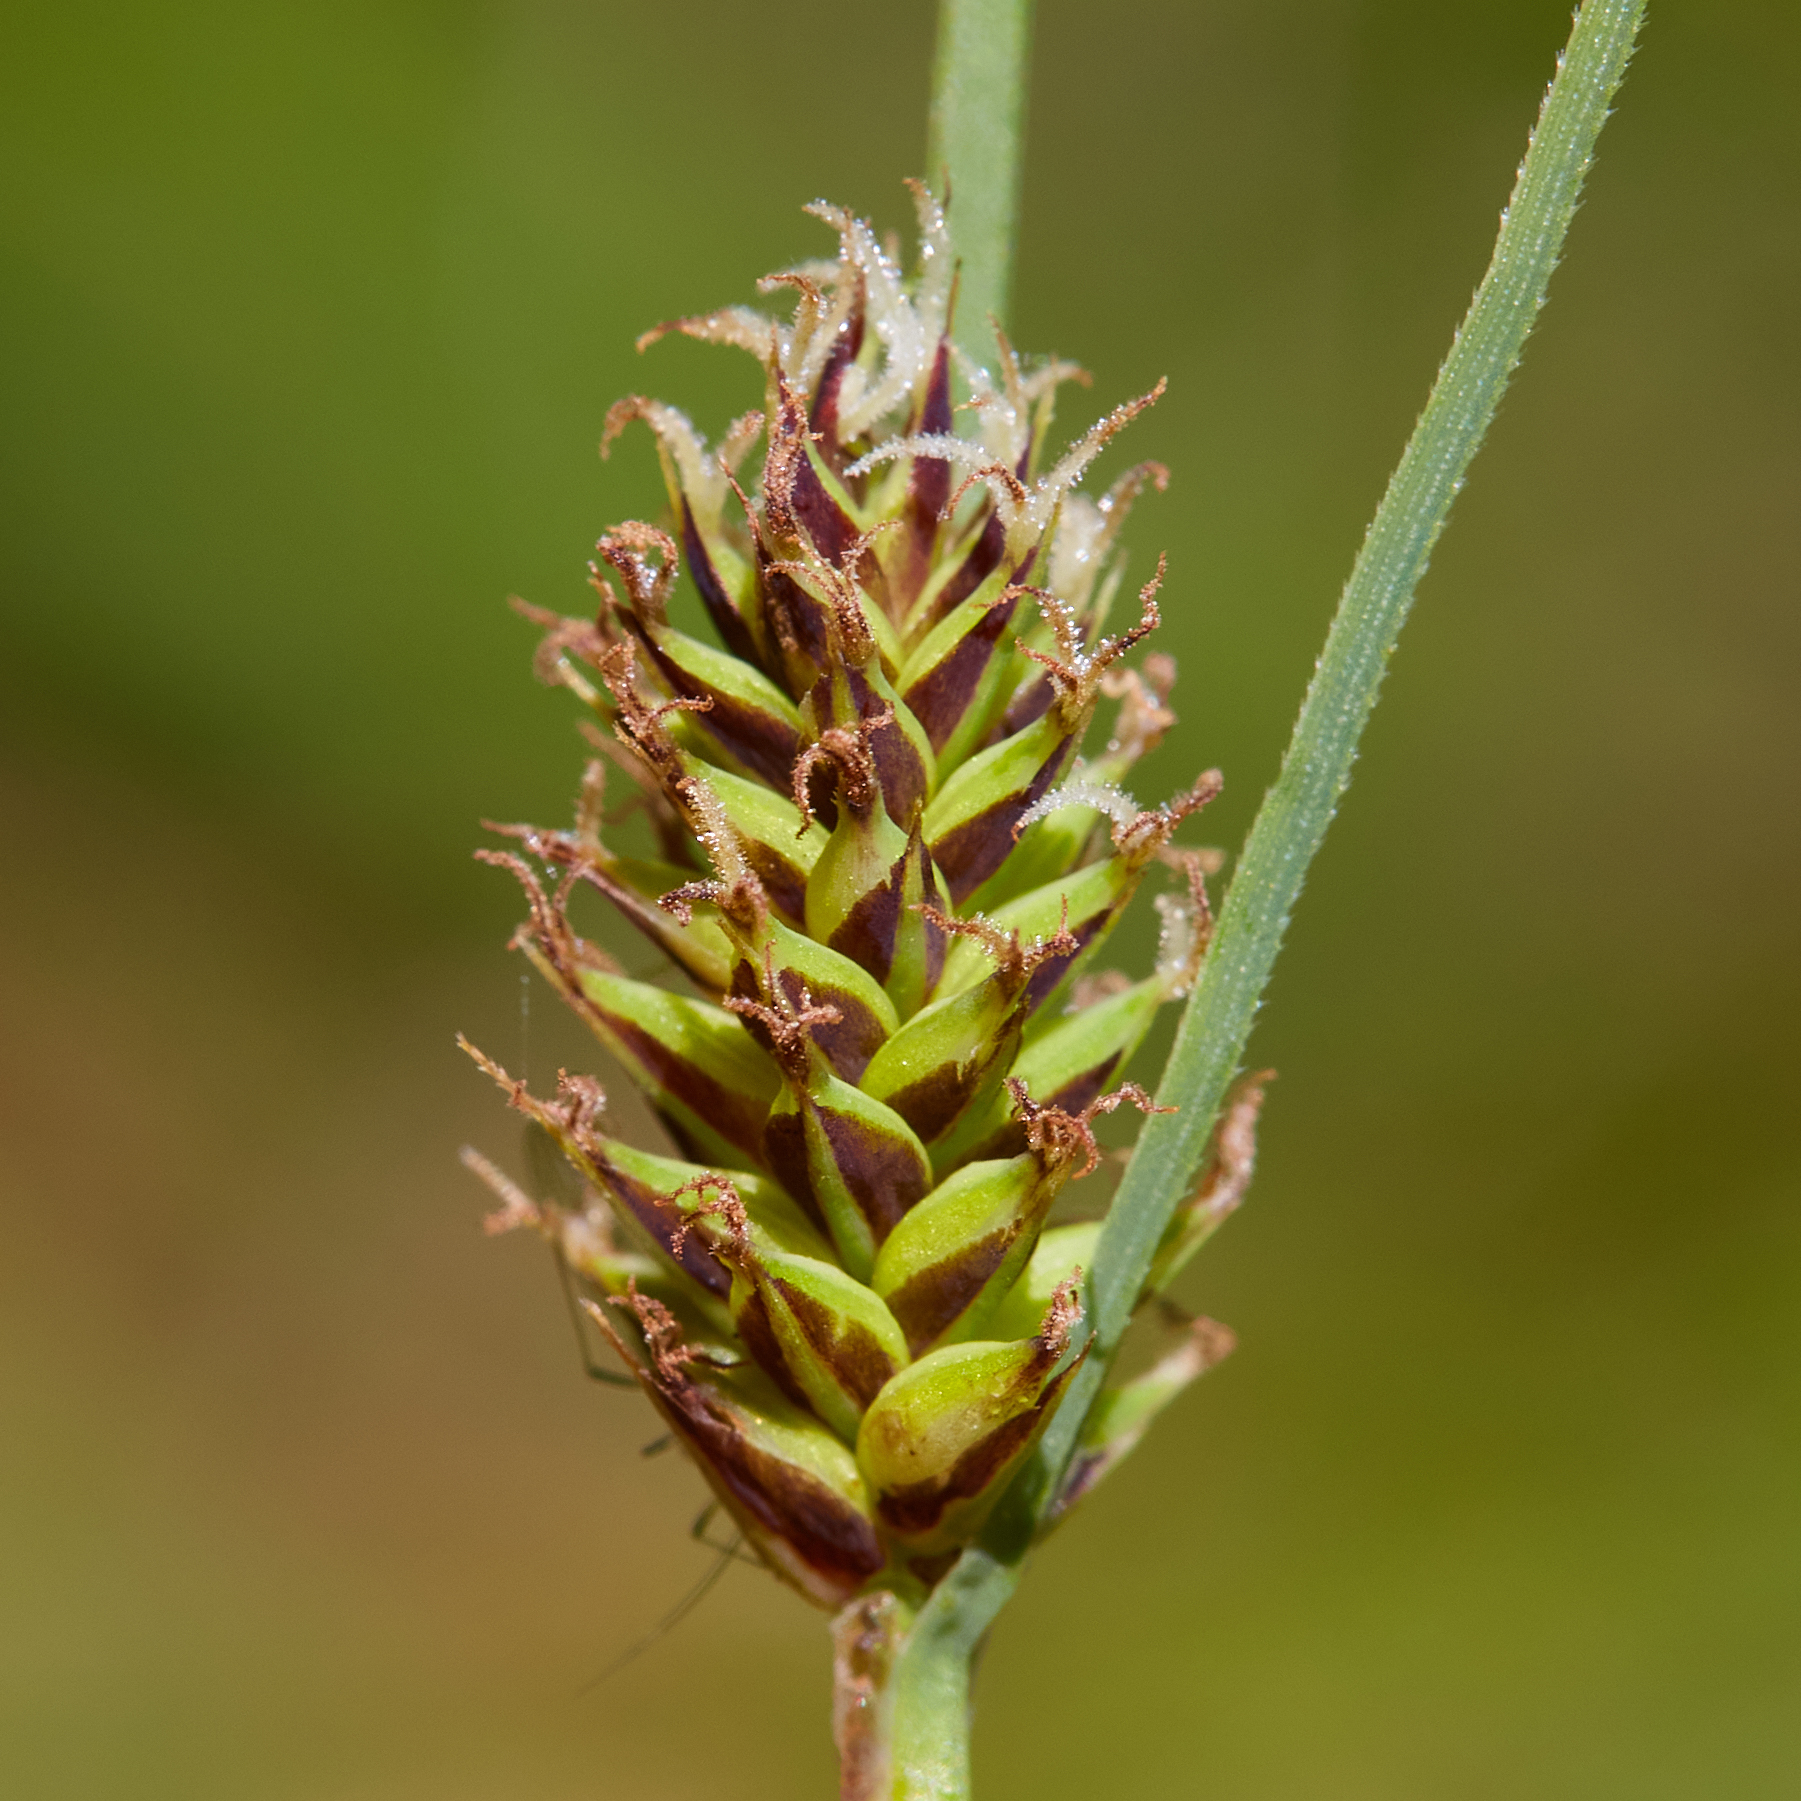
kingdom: Plantae
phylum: Tracheophyta
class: Liliopsida
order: Poales
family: Cyperaceae
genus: Carex
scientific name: Carex serratodens
